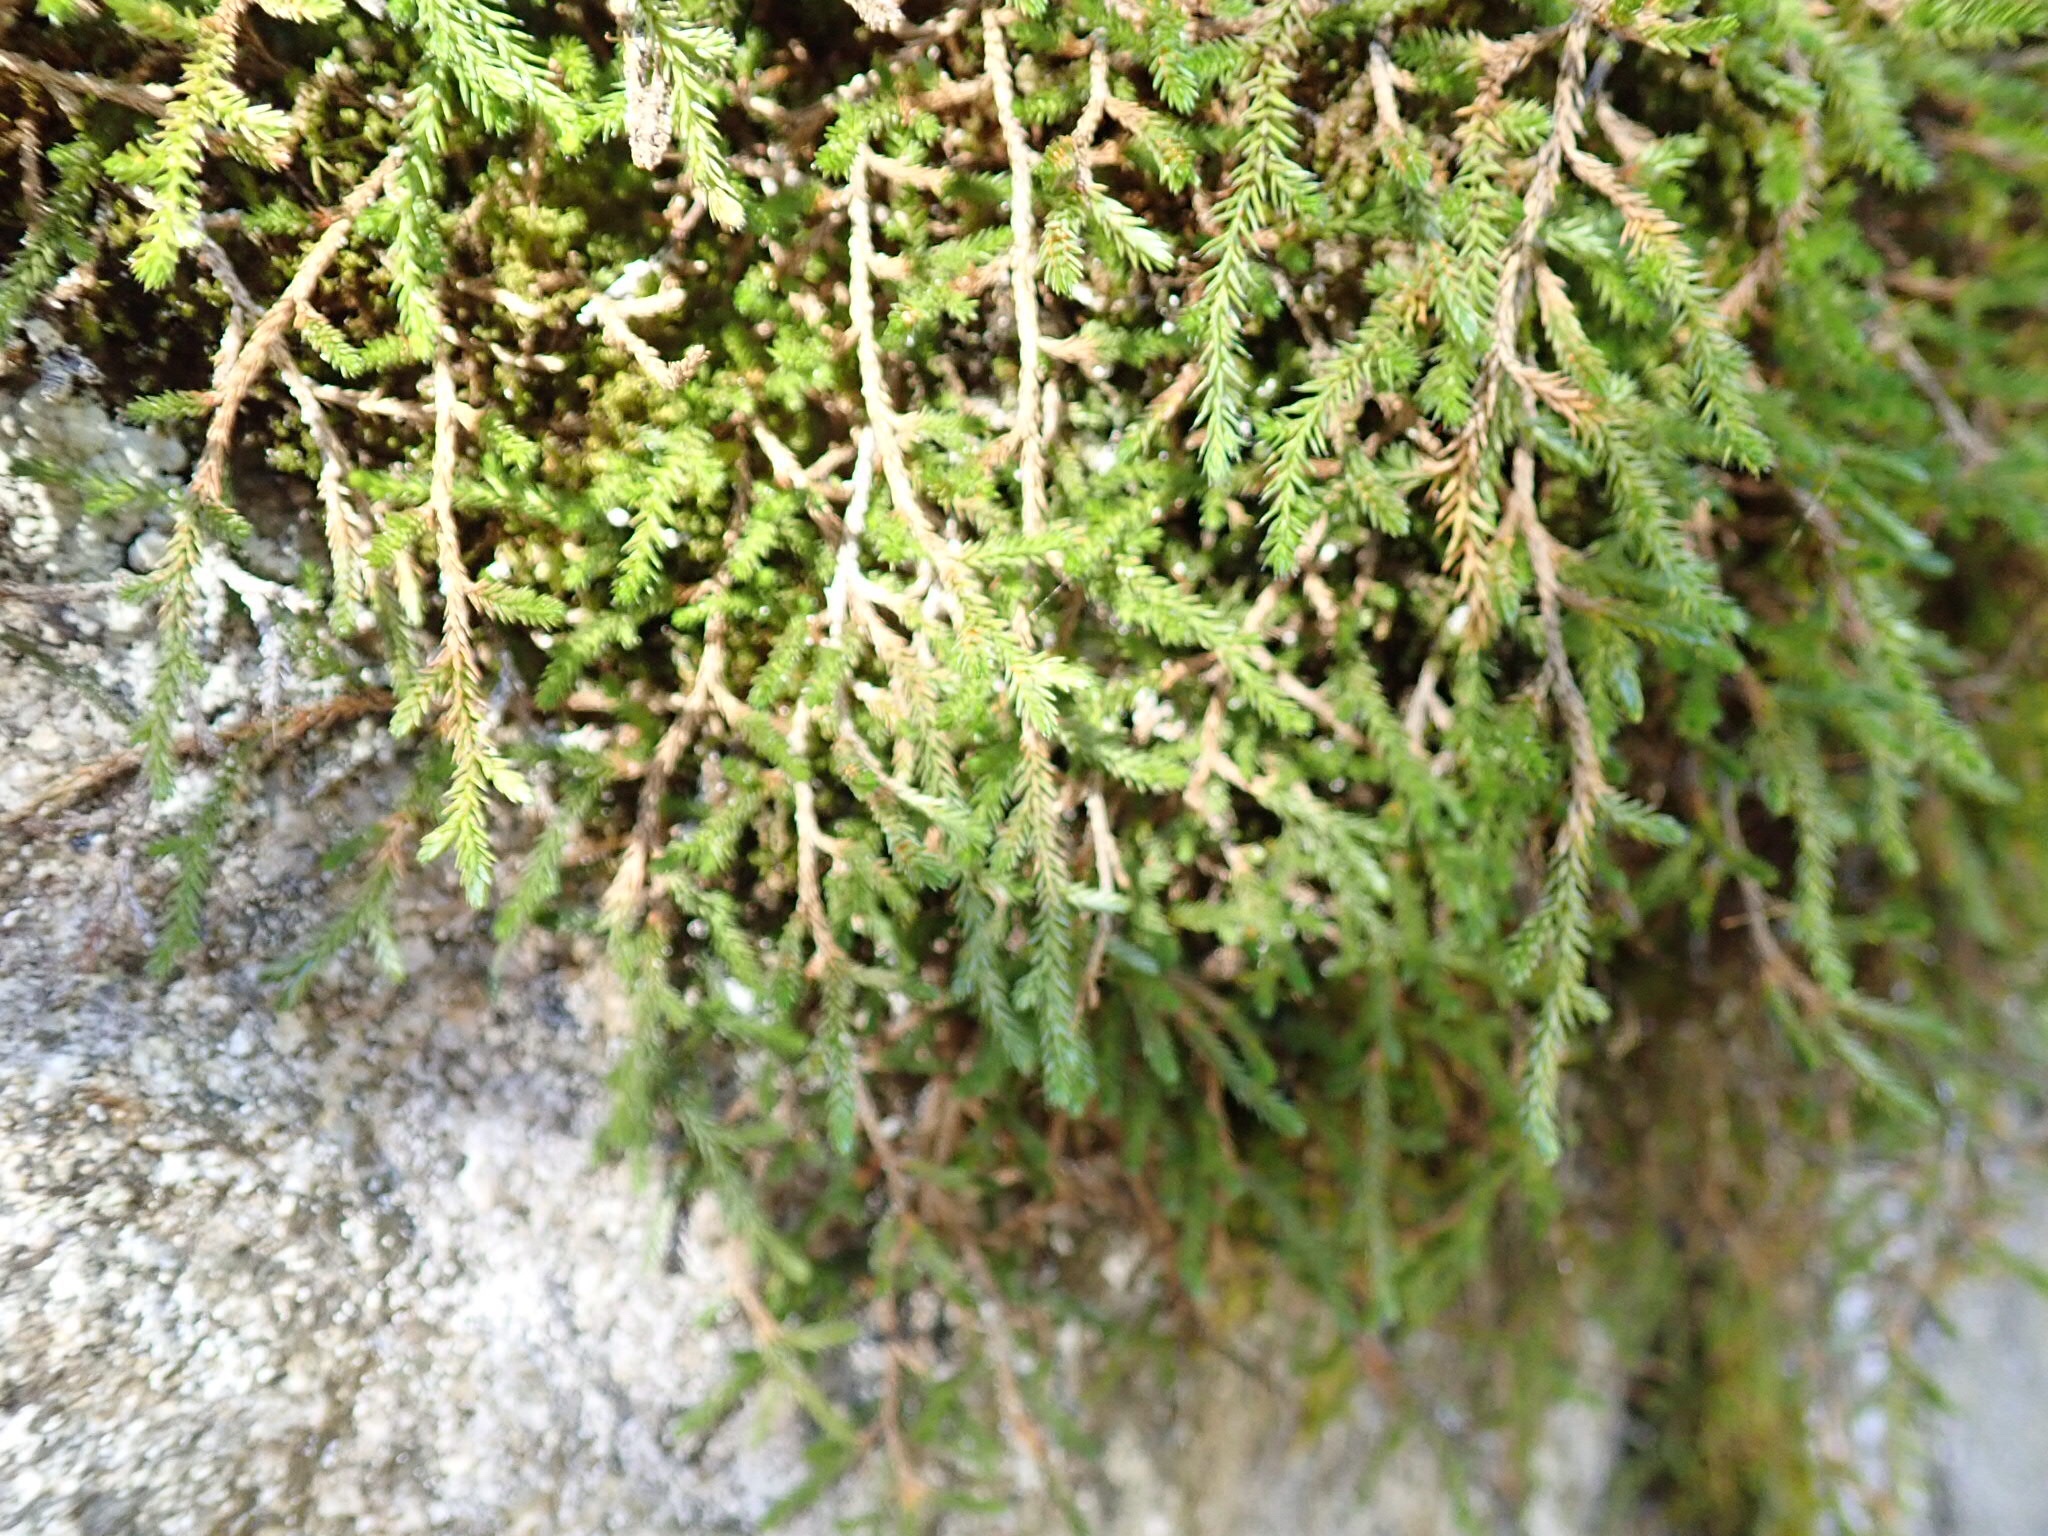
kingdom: Plantae
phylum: Tracheophyta
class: Lycopodiopsida
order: Selaginellales
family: Selaginellaceae
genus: Selaginella
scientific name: Selaginella wallacei
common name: Wallace's selaginella
